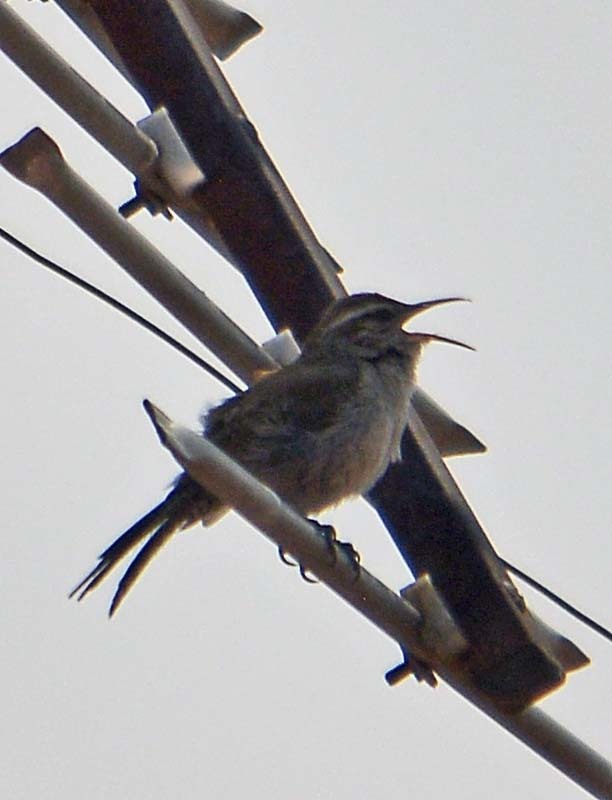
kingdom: Animalia
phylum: Chordata
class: Aves
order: Passeriformes
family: Troglodytidae
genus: Thryomanes
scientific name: Thryomanes bewickii
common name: Bewick's wren
